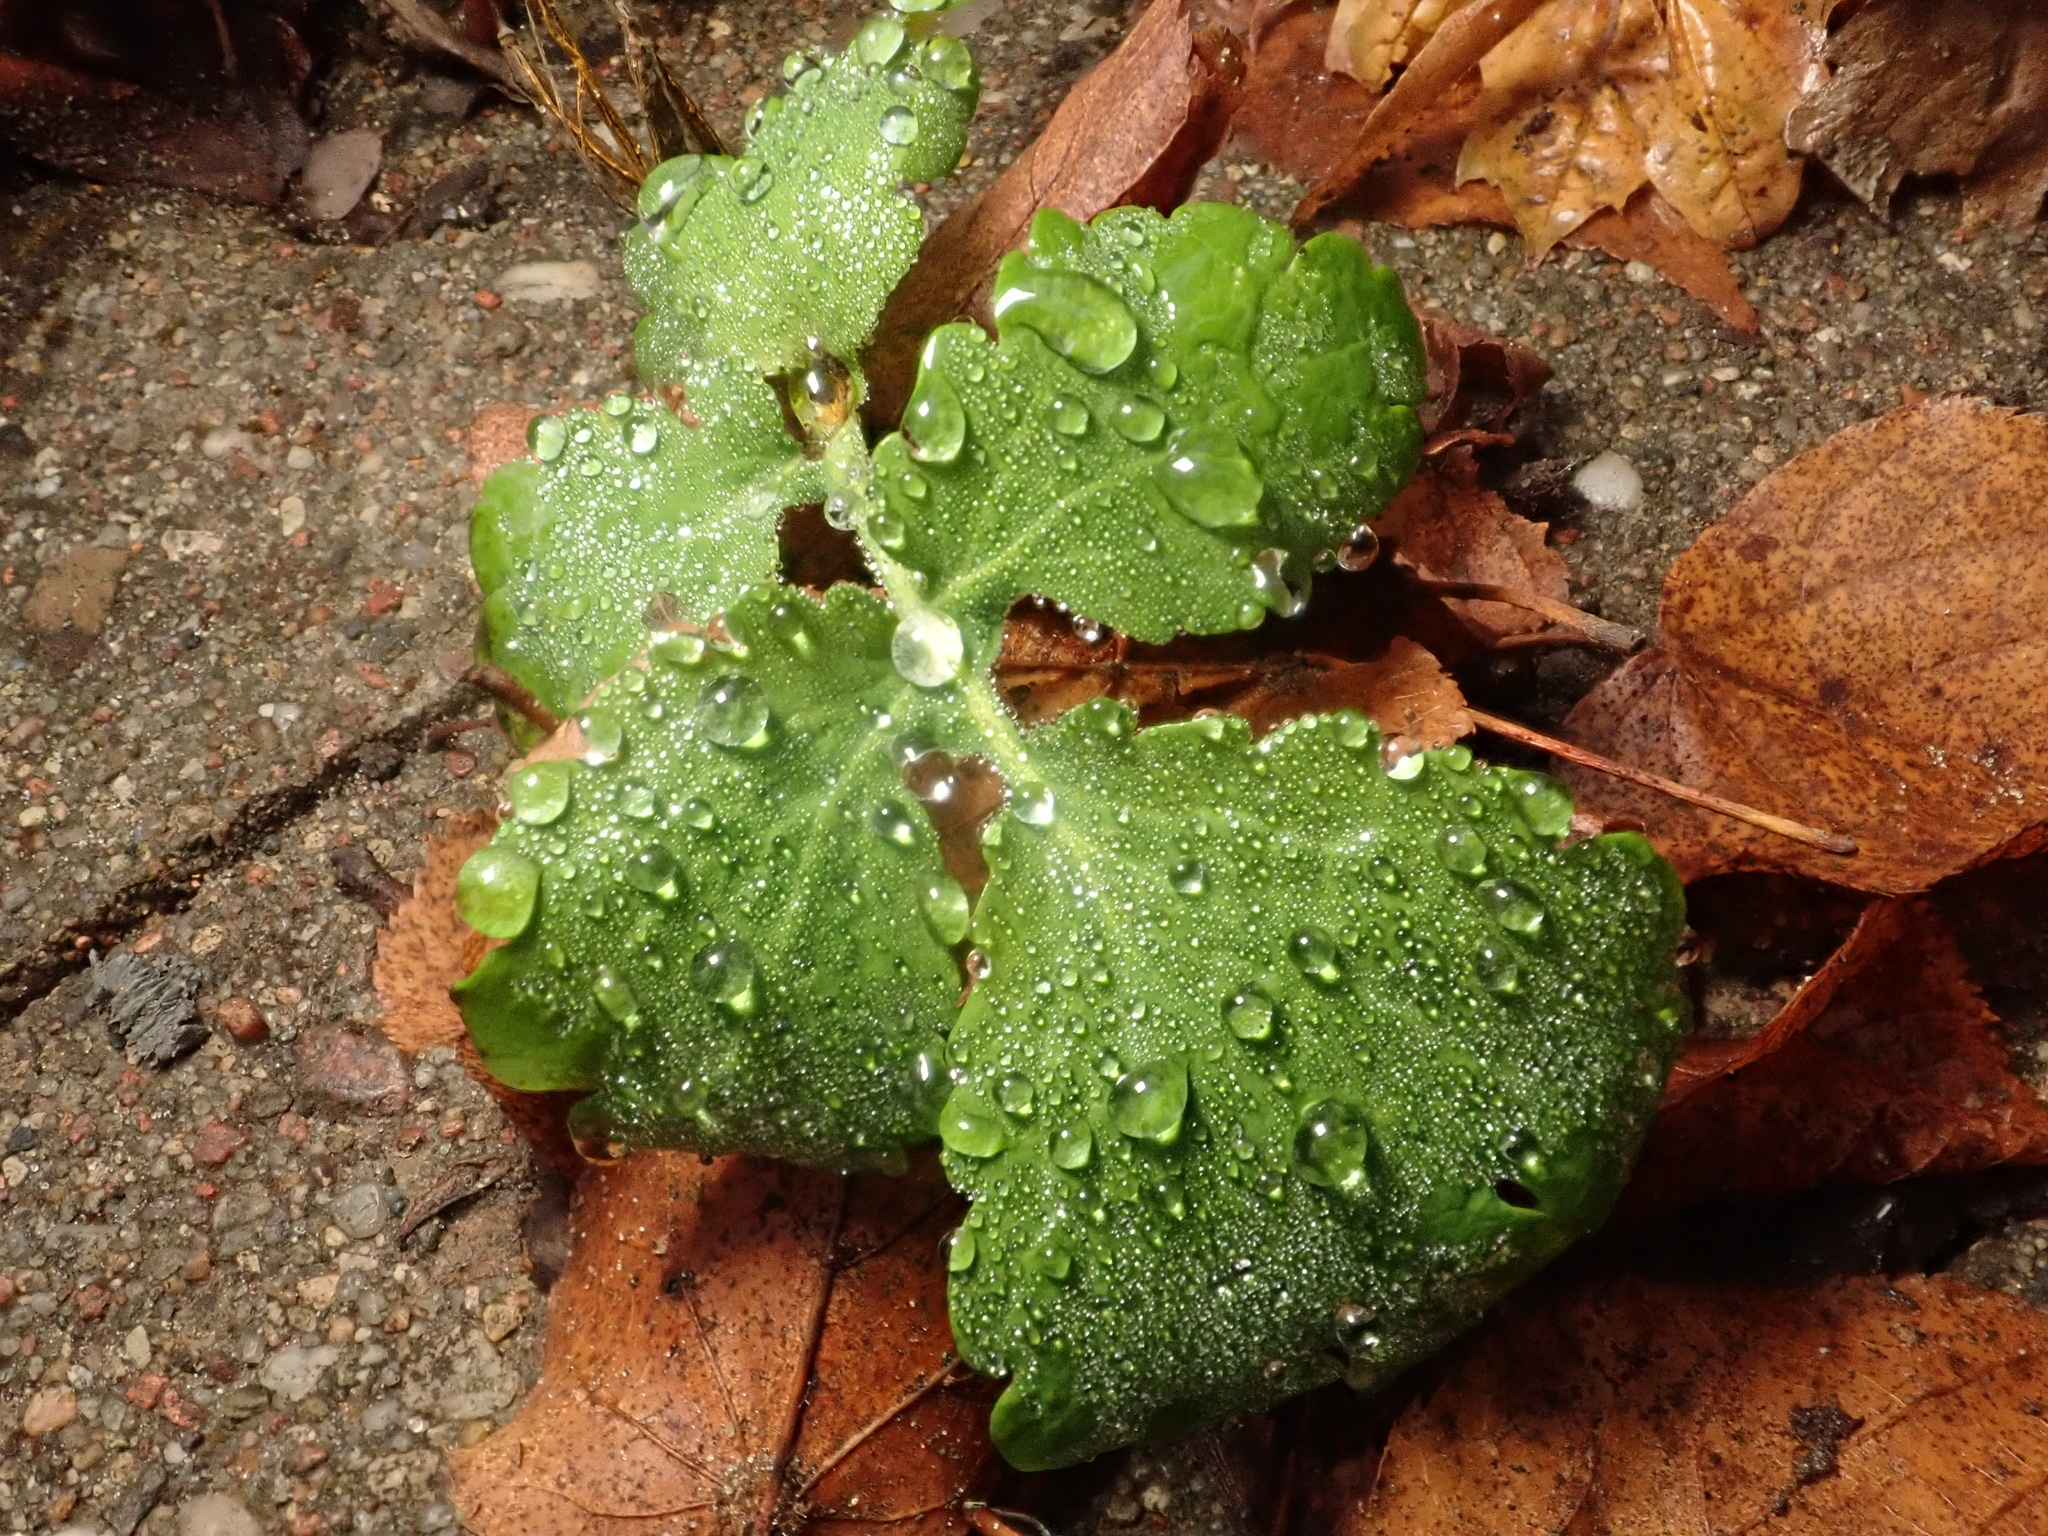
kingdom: Plantae
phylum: Tracheophyta
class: Magnoliopsida
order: Ranunculales
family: Papaveraceae
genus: Chelidonium
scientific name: Chelidonium majus
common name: Greater celandine
